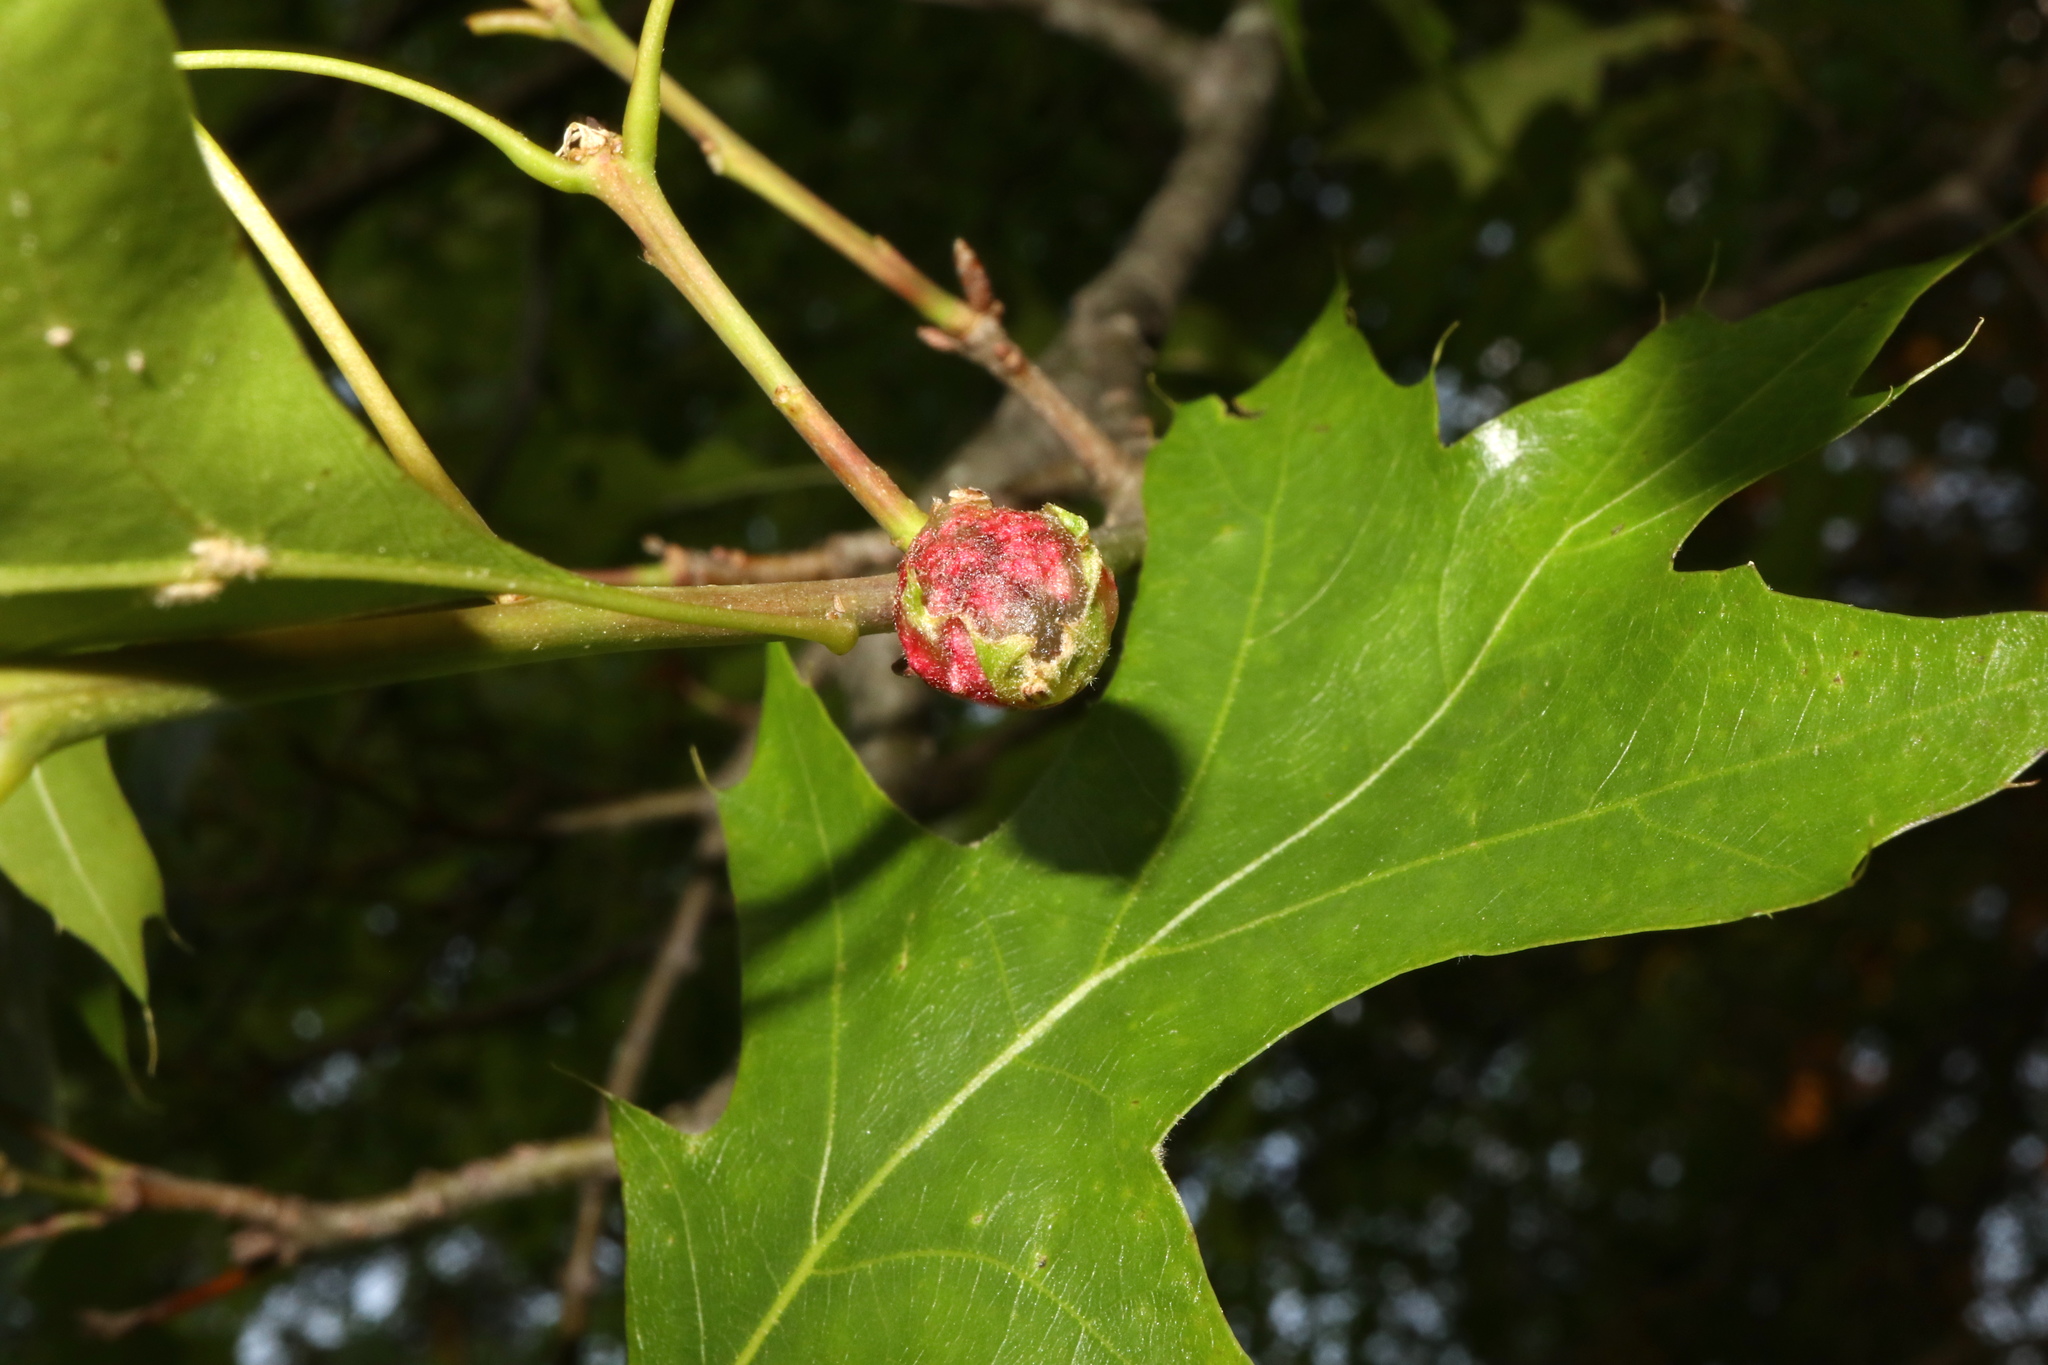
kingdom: Animalia
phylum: Arthropoda
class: Insecta
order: Hymenoptera
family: Cynipidae
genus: Dryocosmus
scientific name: Dryocosmus quercuspalustris
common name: Succulent oak gall wasp
